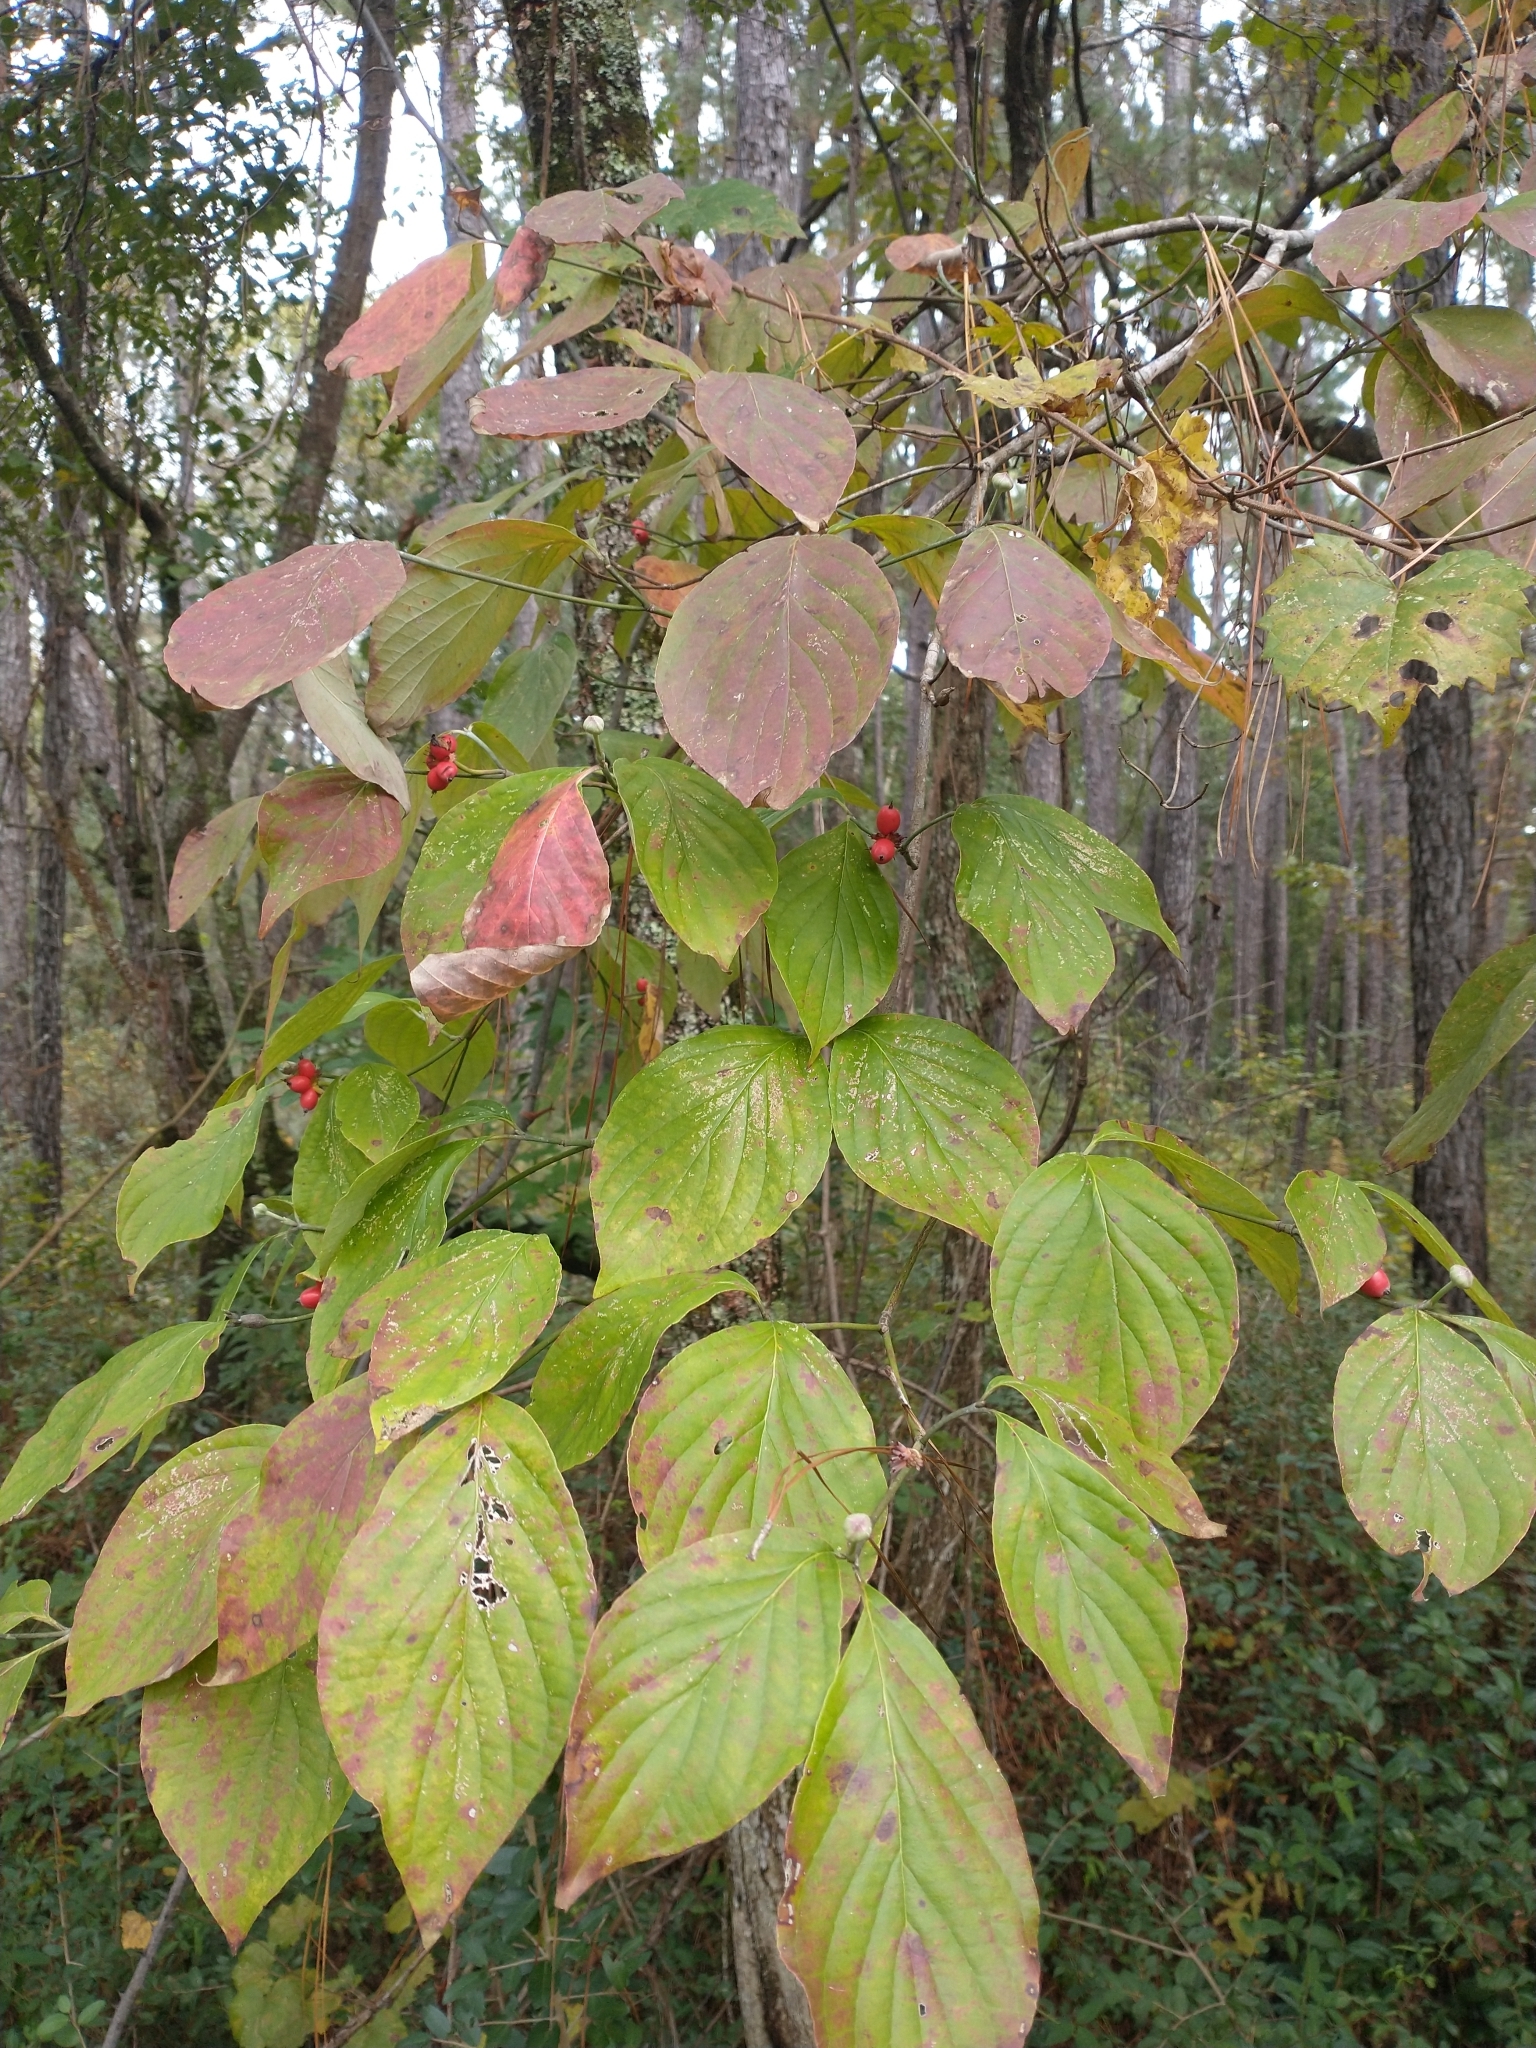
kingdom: Plantae
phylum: Tracheophyta
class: Magnoliopsida
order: Cornales
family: Cornaceae
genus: Cornus
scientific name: Cornus florida
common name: Flowering dogwood
